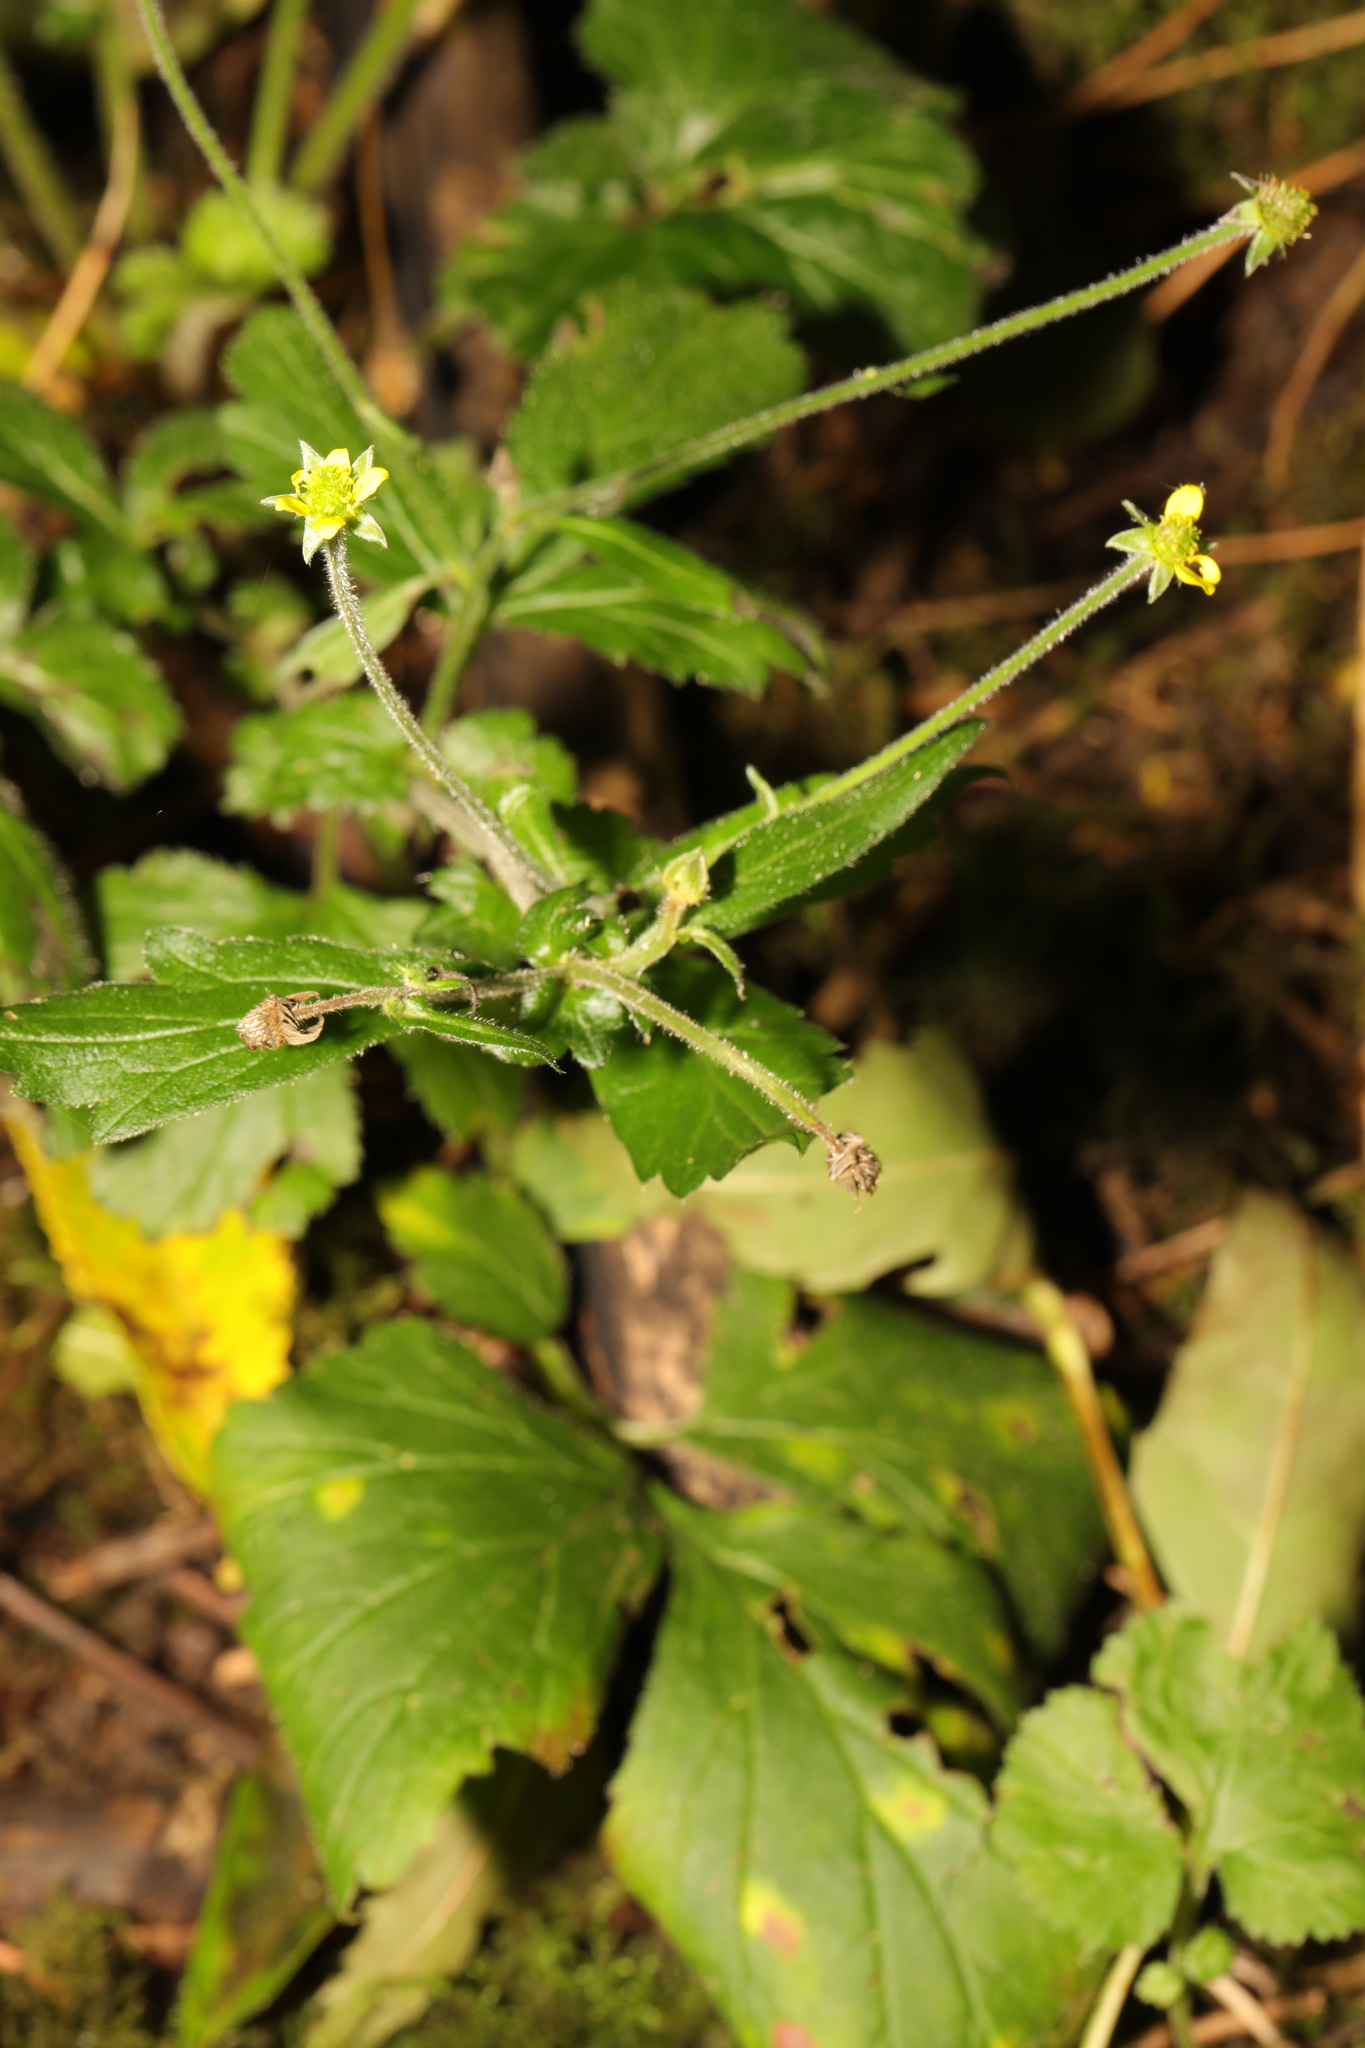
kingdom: Plantae
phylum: Tracheophyta
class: Magnoliopsida
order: Rosales
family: Rosaceae
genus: Geum
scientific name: Geum urbanum
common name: Wood avens
